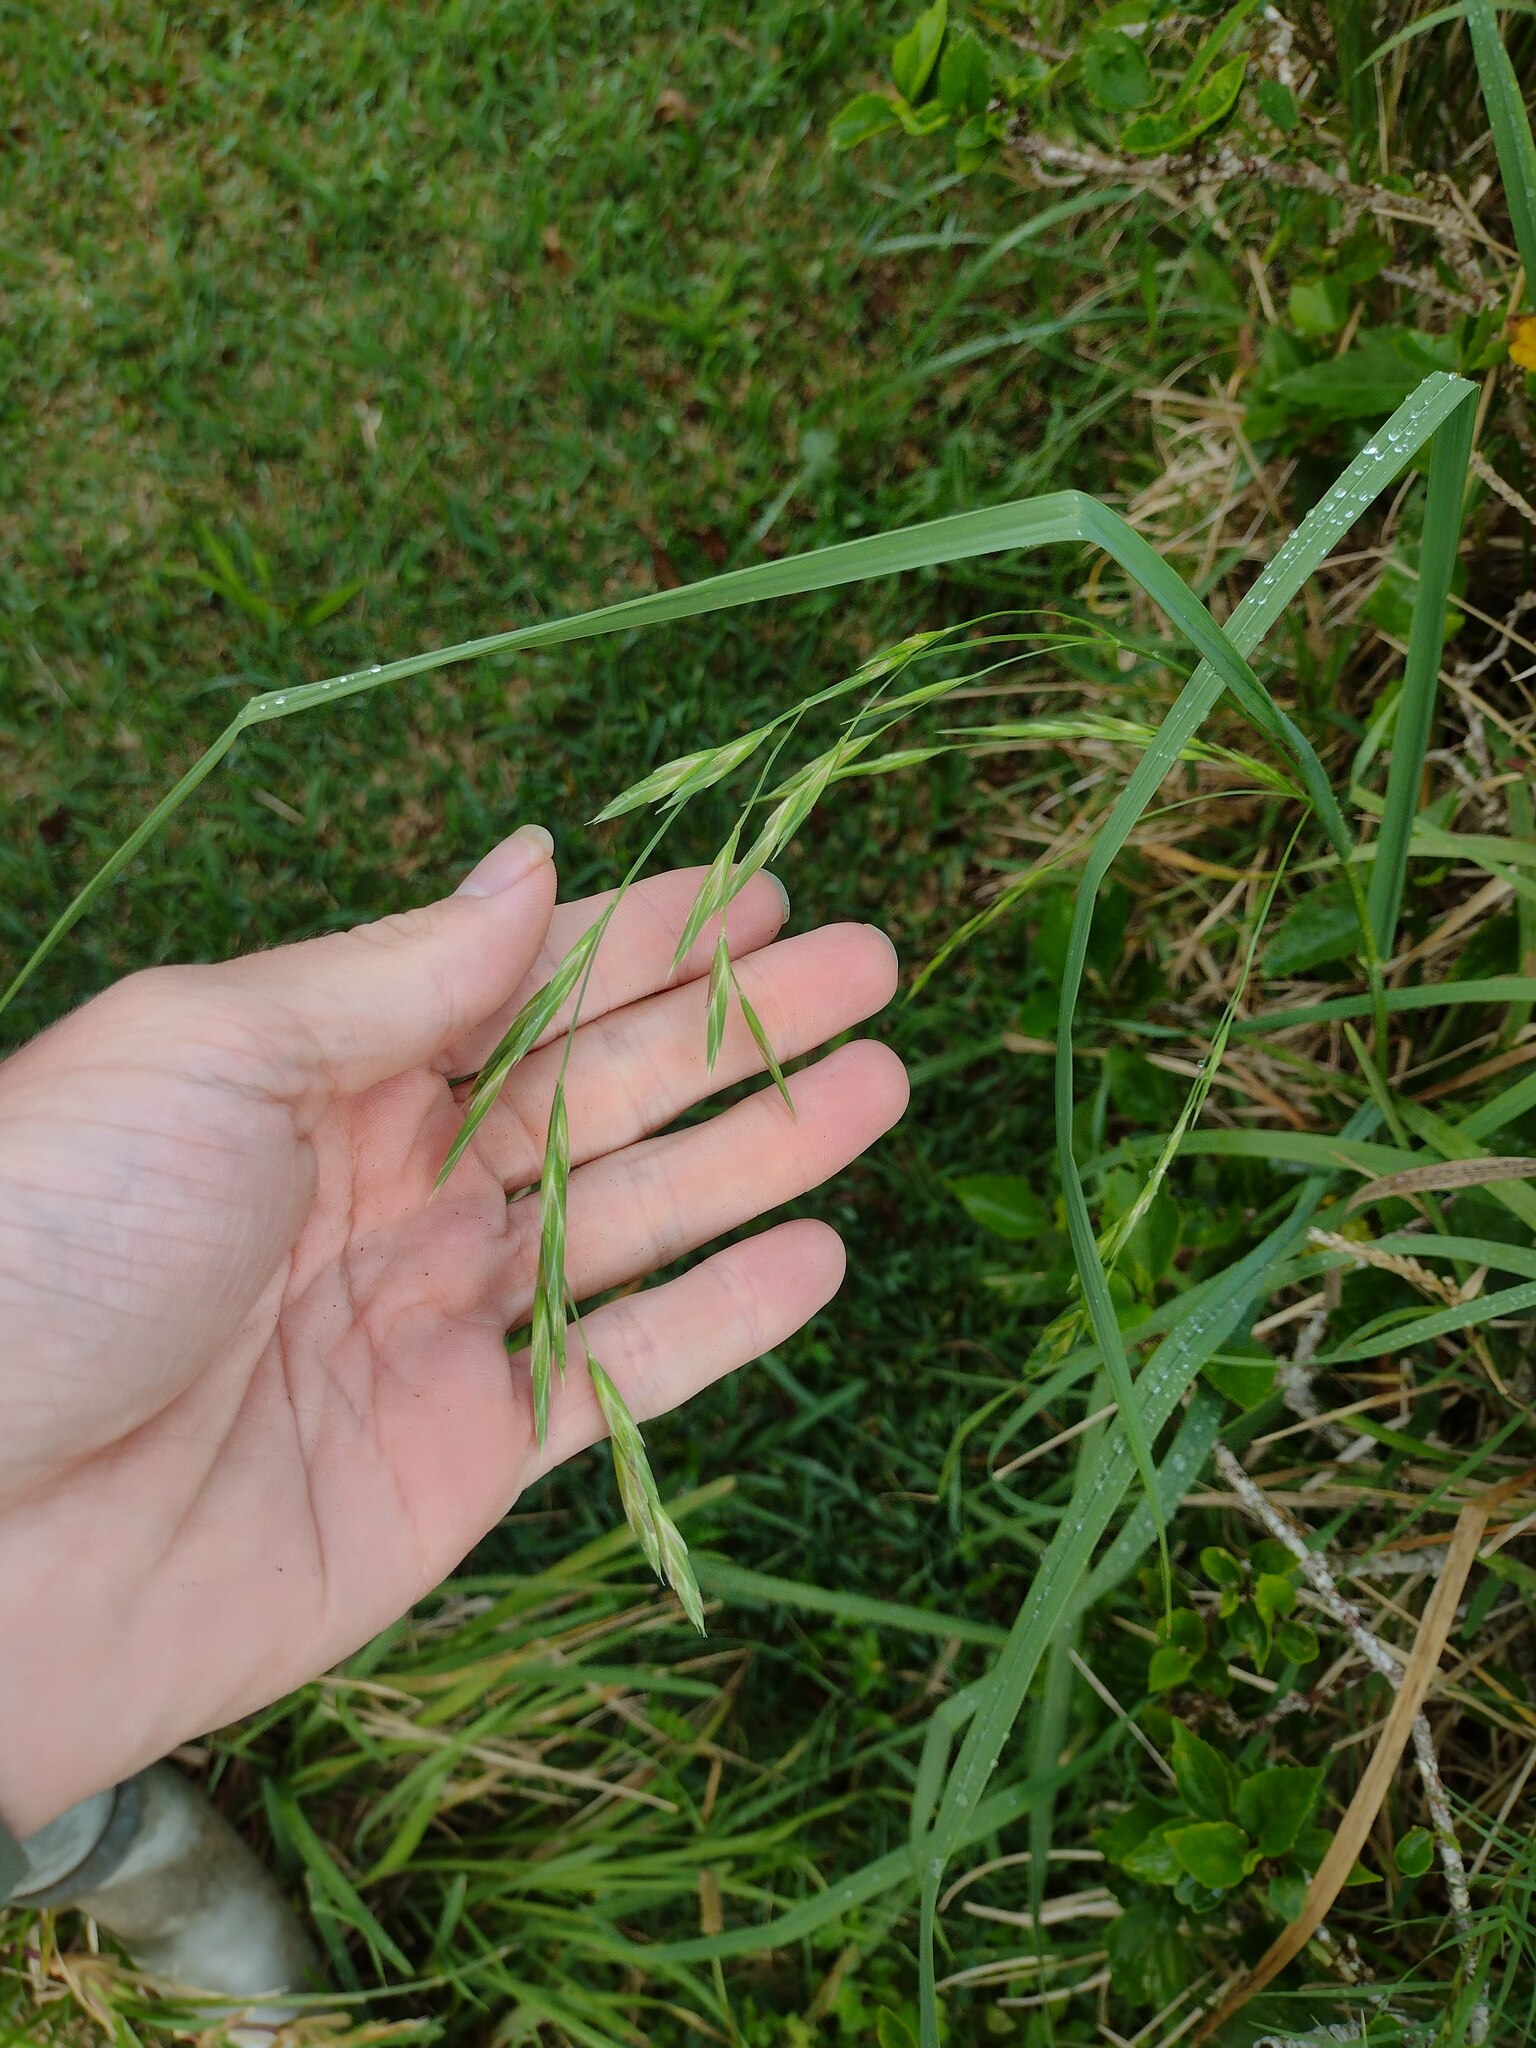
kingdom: Plantae
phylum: Tracheophyta
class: Liliopsida
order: Poales
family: Poaceae
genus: Bromus
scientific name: Bromus catharticus
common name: Rescuegrass
